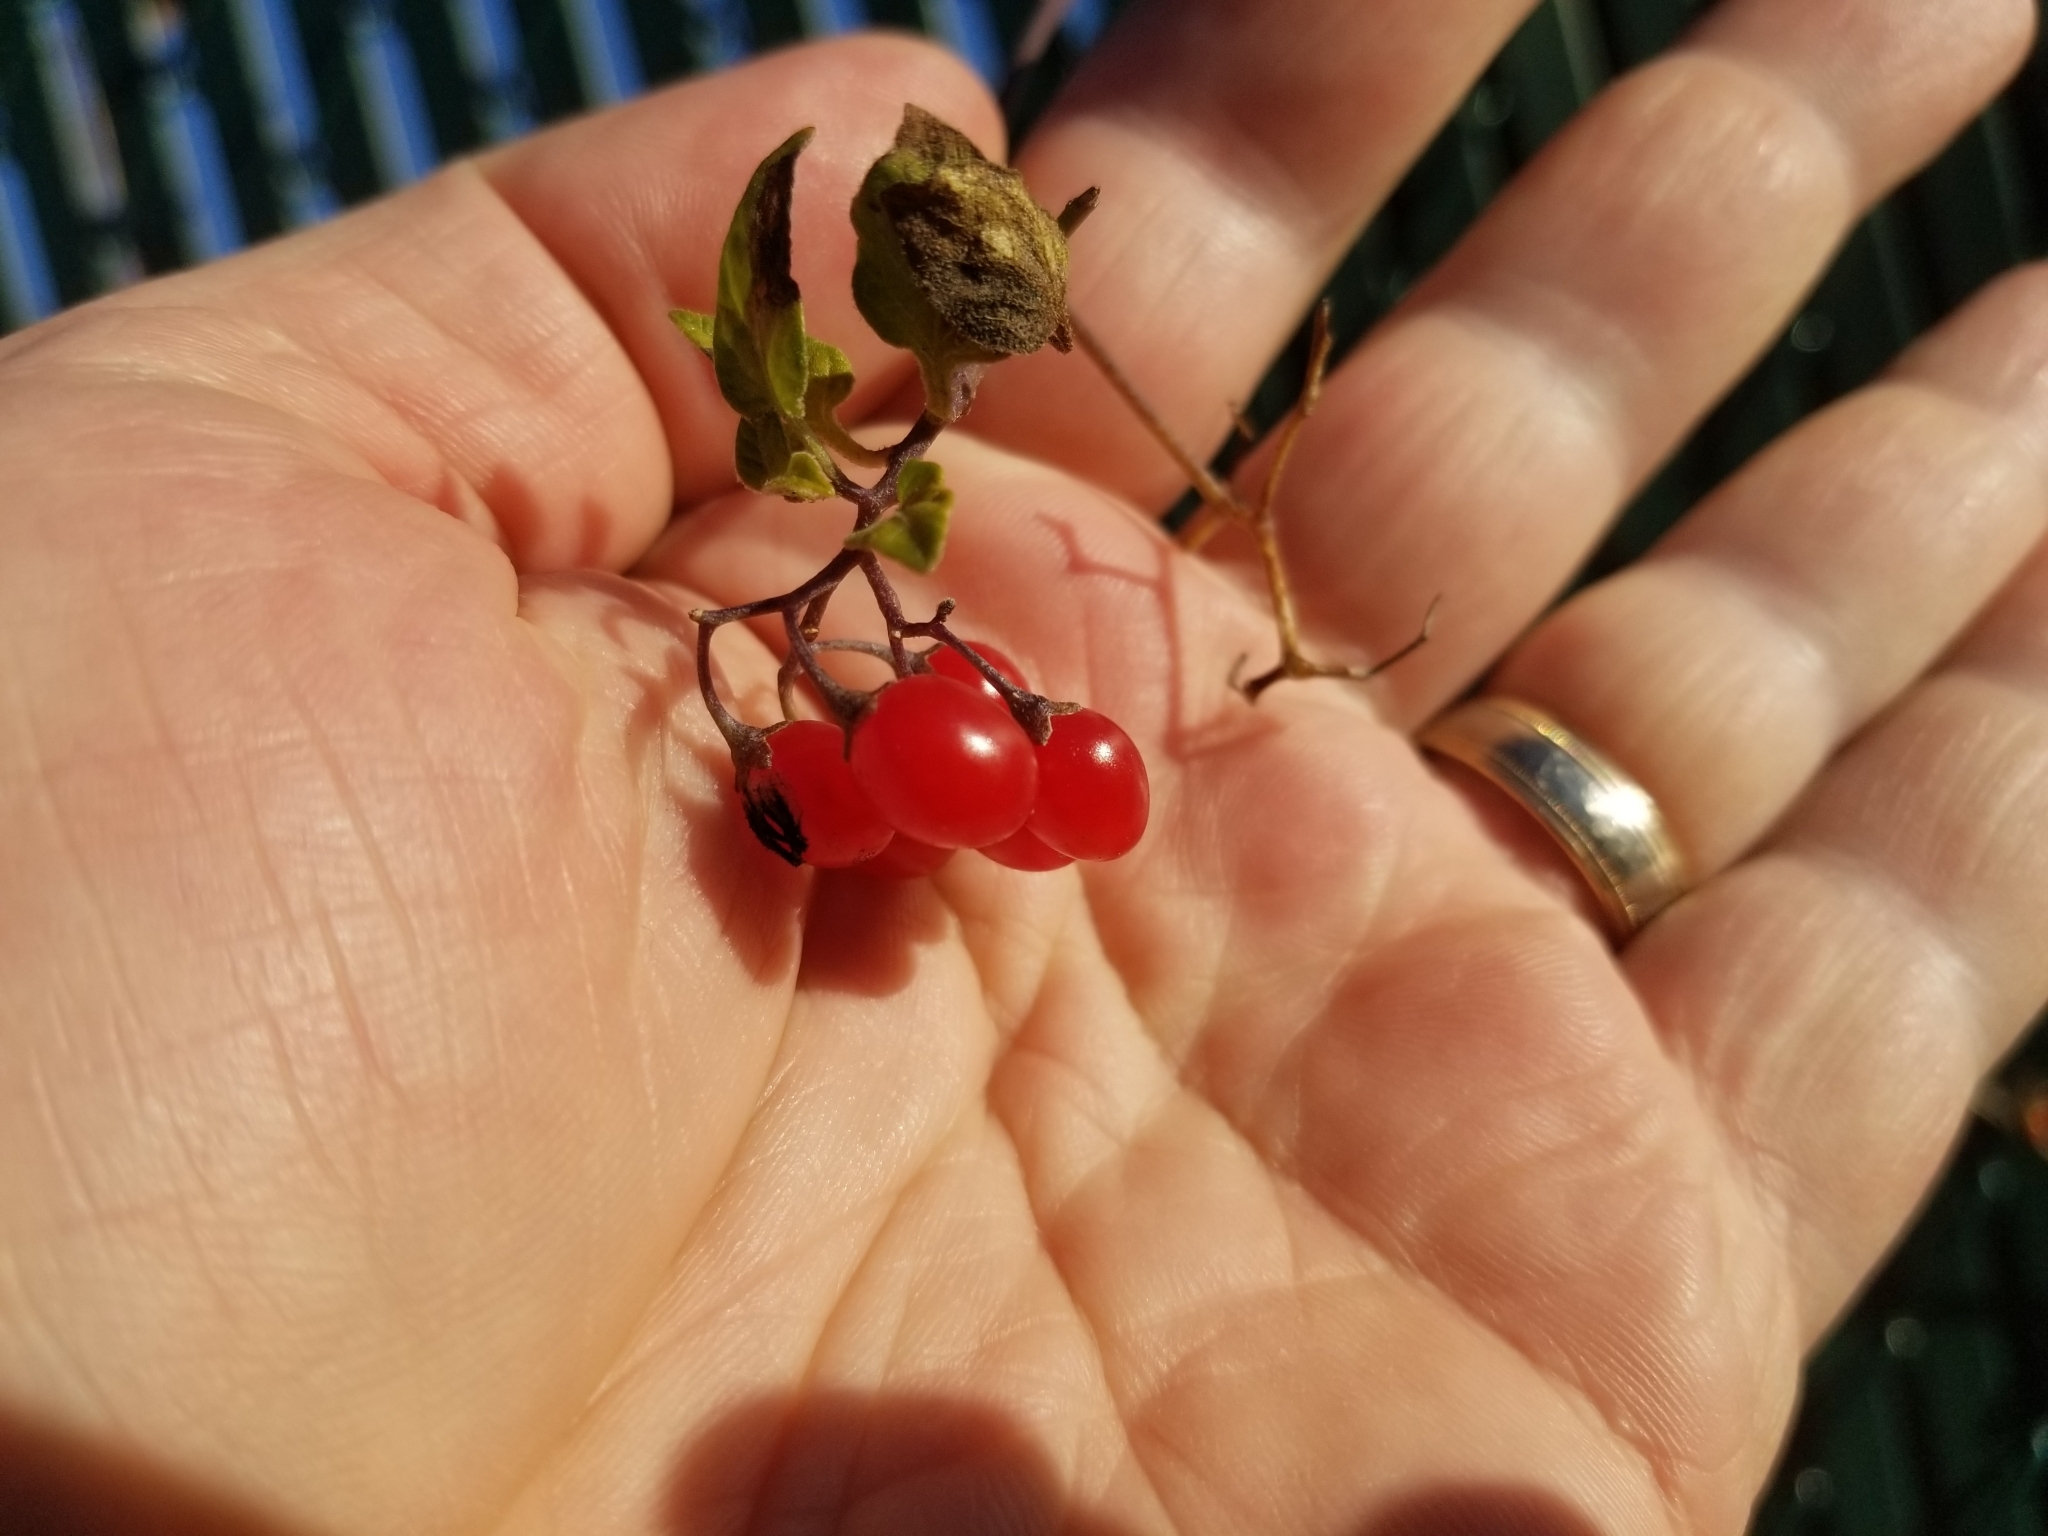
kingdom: Plantae
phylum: Tracheophyta
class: Magnoliopsida
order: Solanales
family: Solanaceae
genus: Solanum
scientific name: Solanum dulcamara
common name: Climbing nightshade
